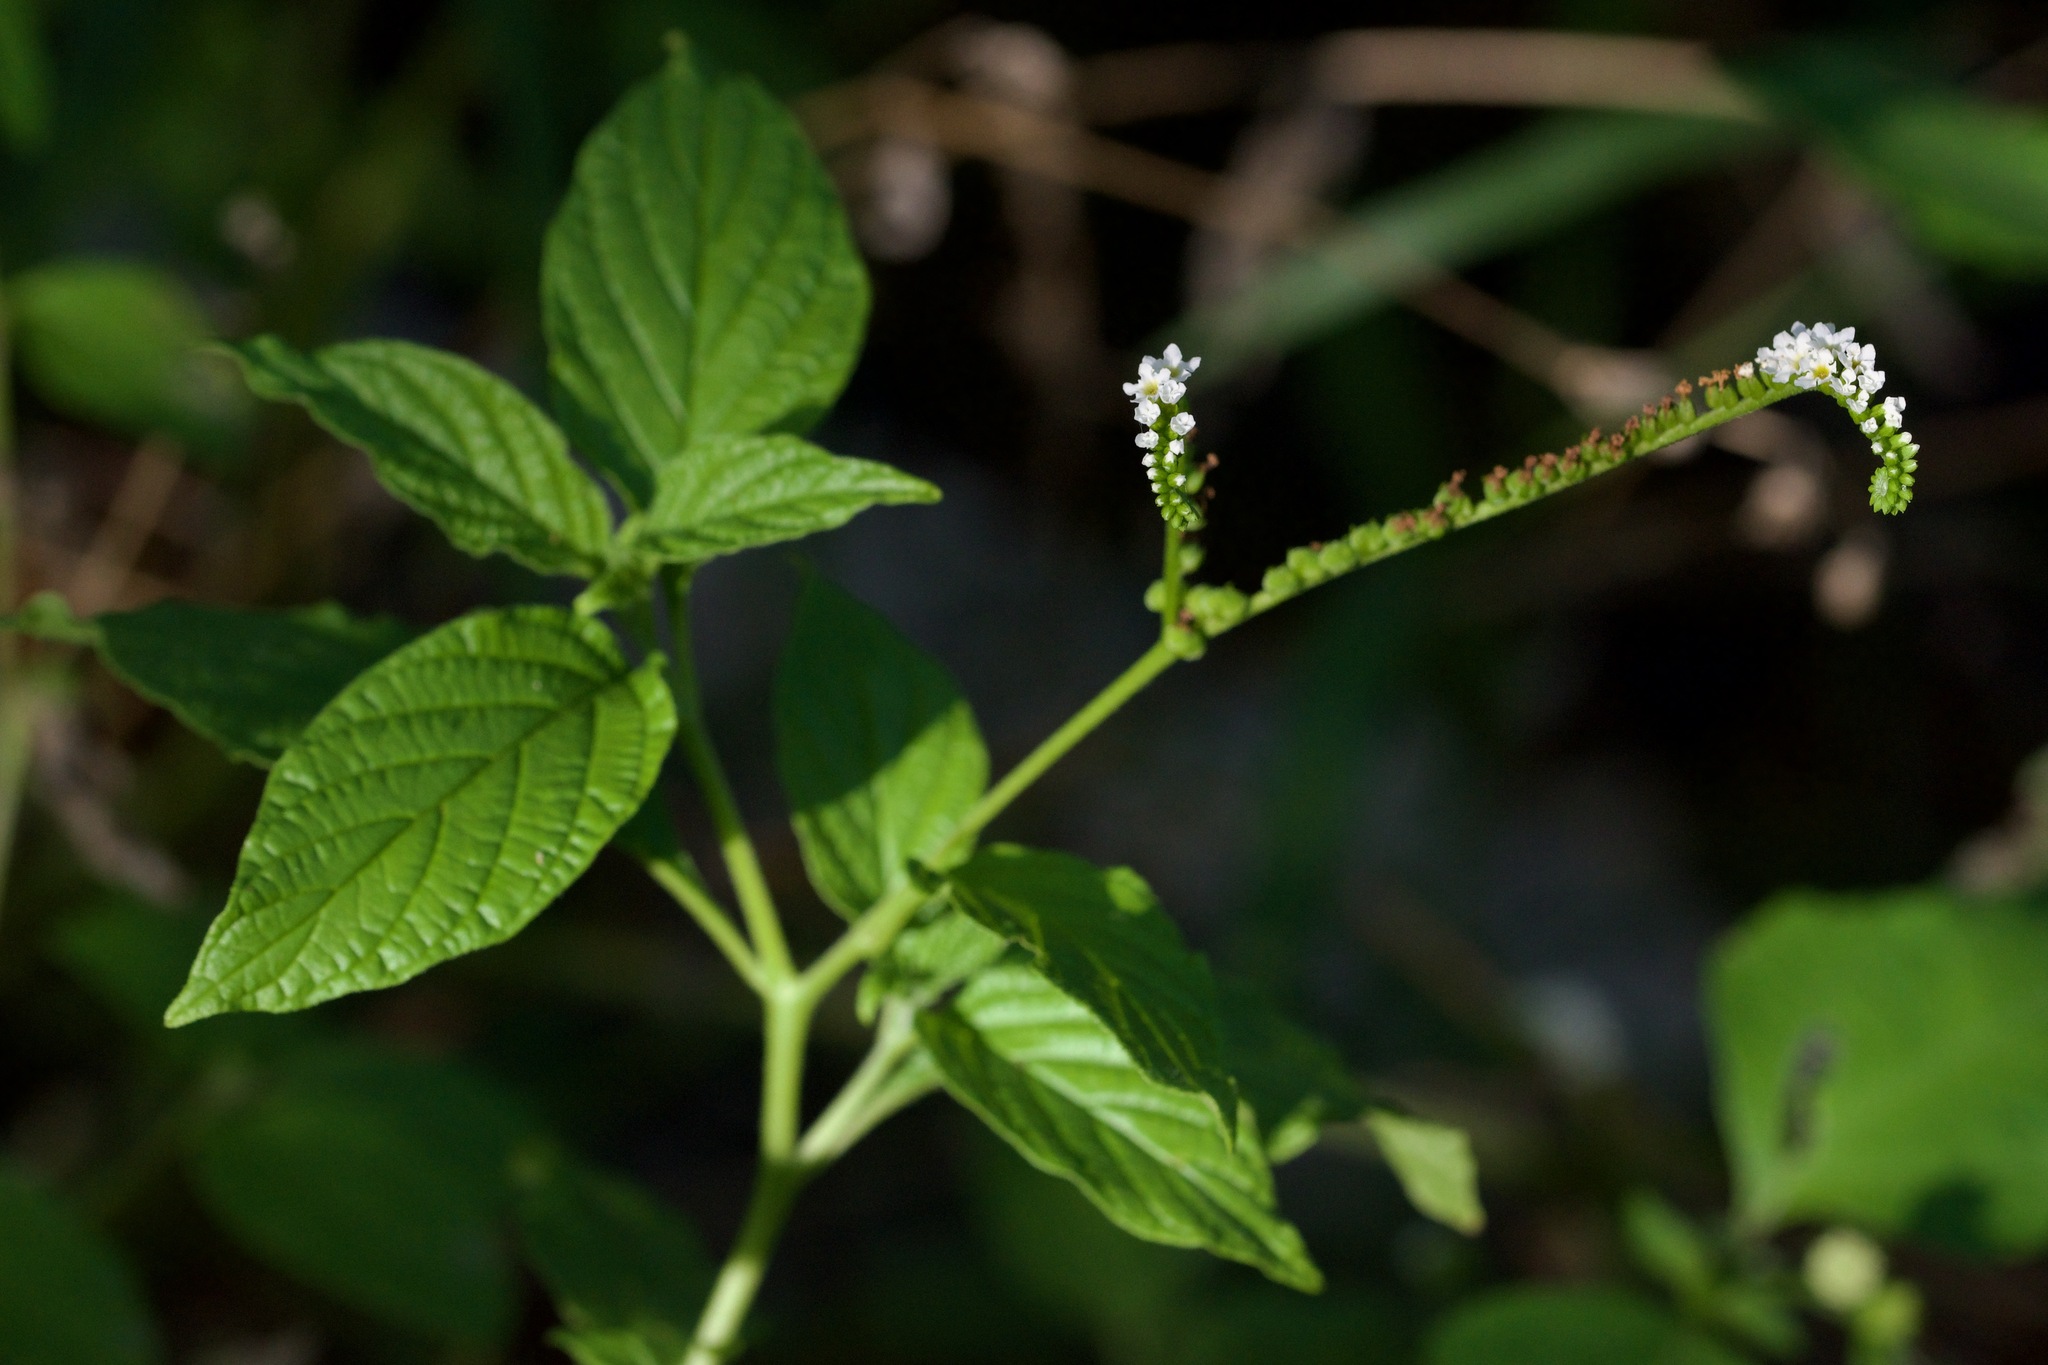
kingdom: Plantae
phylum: Tracheophyta
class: Magnoliopsida
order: Boraginales
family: Heliotropiaceae
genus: Heliotropium
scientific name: Heliotropium angiospermum
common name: Eye bright
